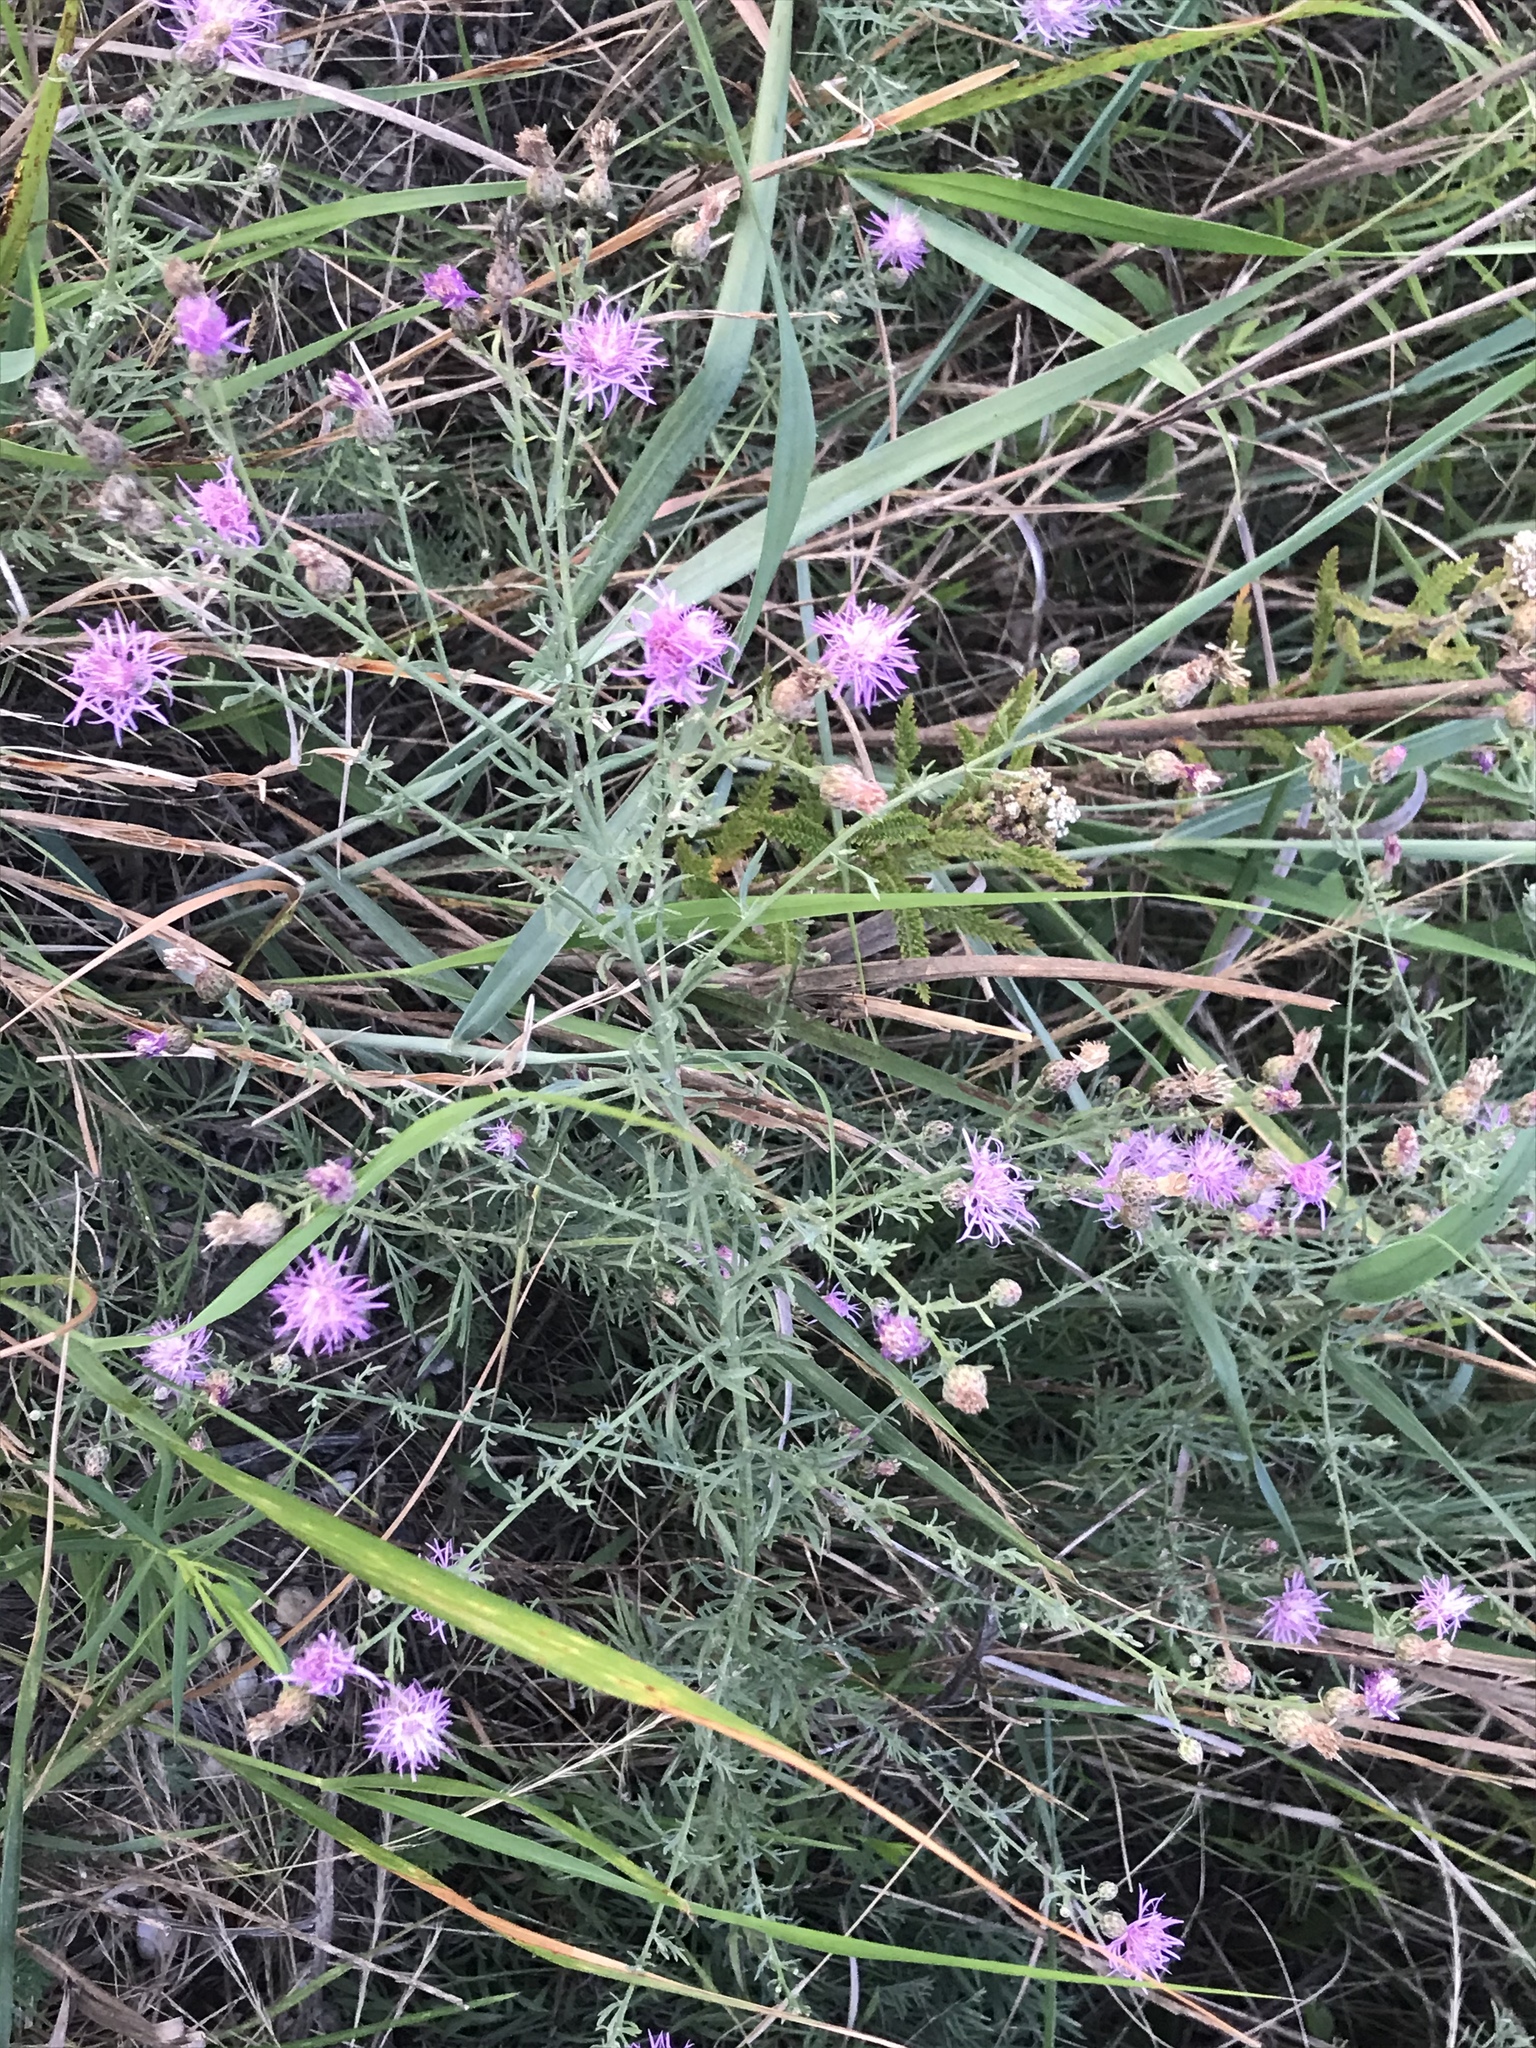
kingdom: Plantae
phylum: Tracheophyta
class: Magnoliopsida
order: Asterales
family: Asteraceae
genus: Centaurea
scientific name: Centaurea stoebe
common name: Spotted knapweed
